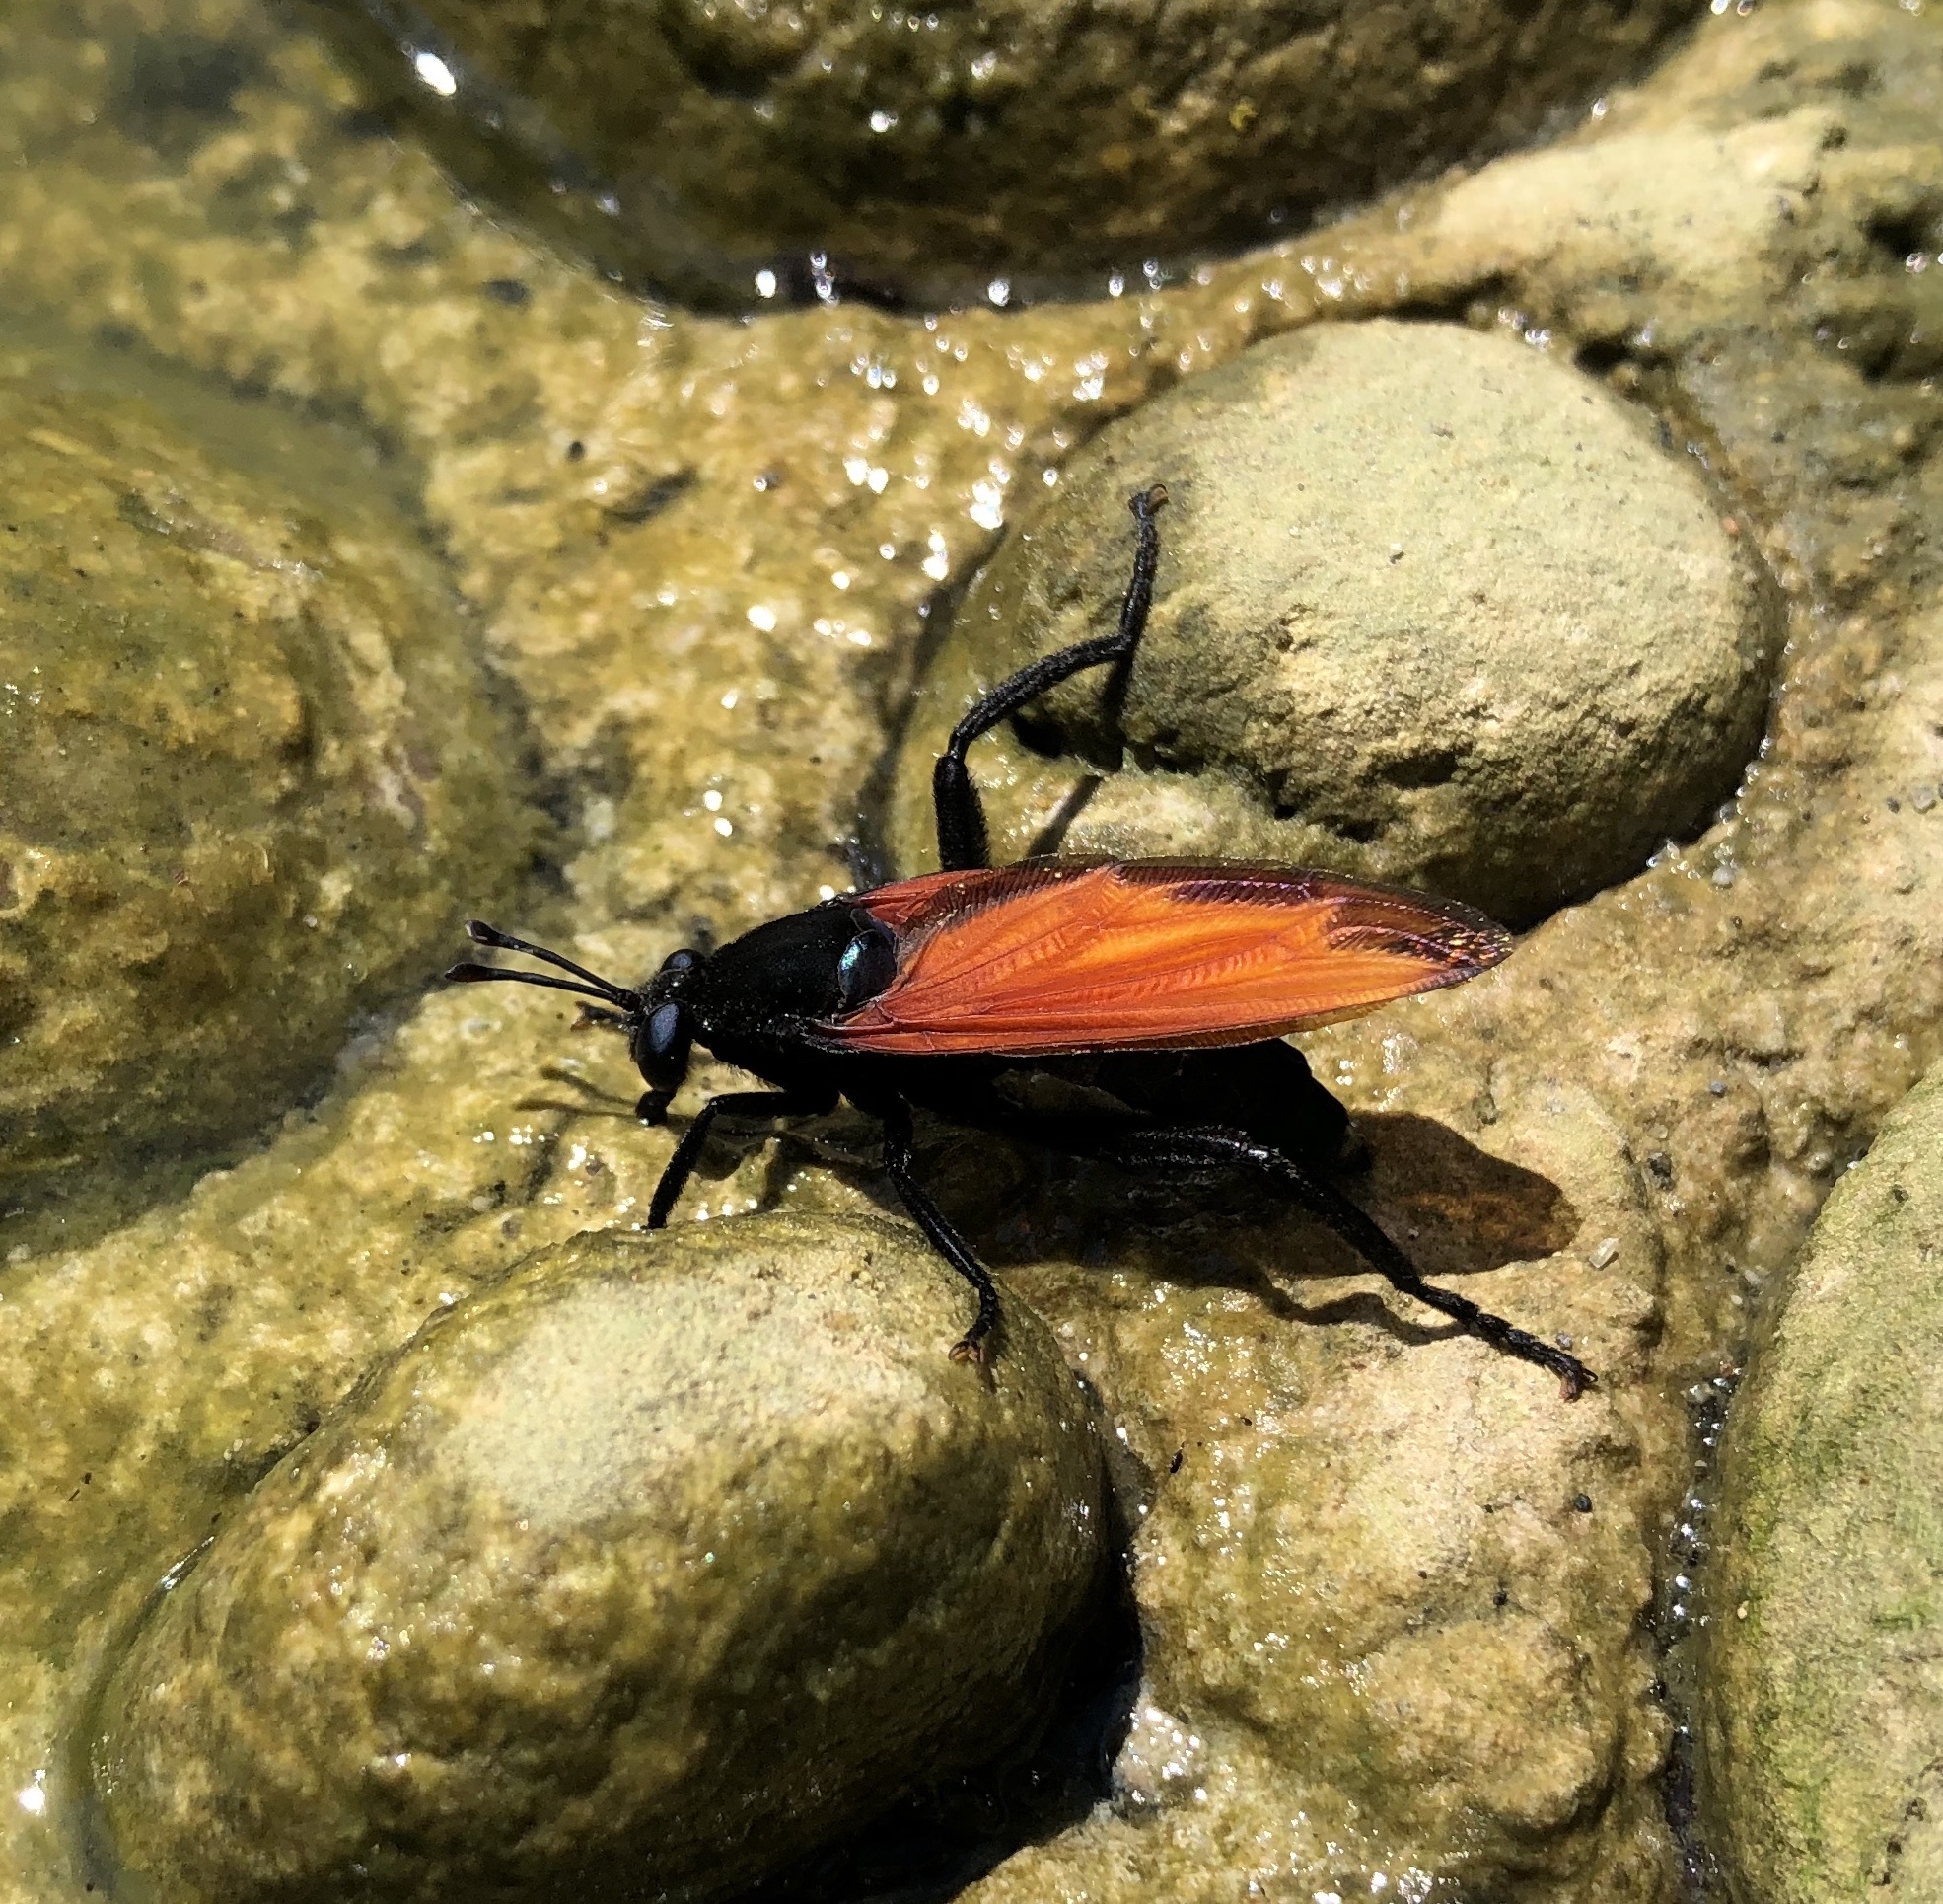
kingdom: Animalia
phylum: Arthropoda
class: Insecta
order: Diptera
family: Mydidae
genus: Mydas
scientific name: Mydas xanthopterus
